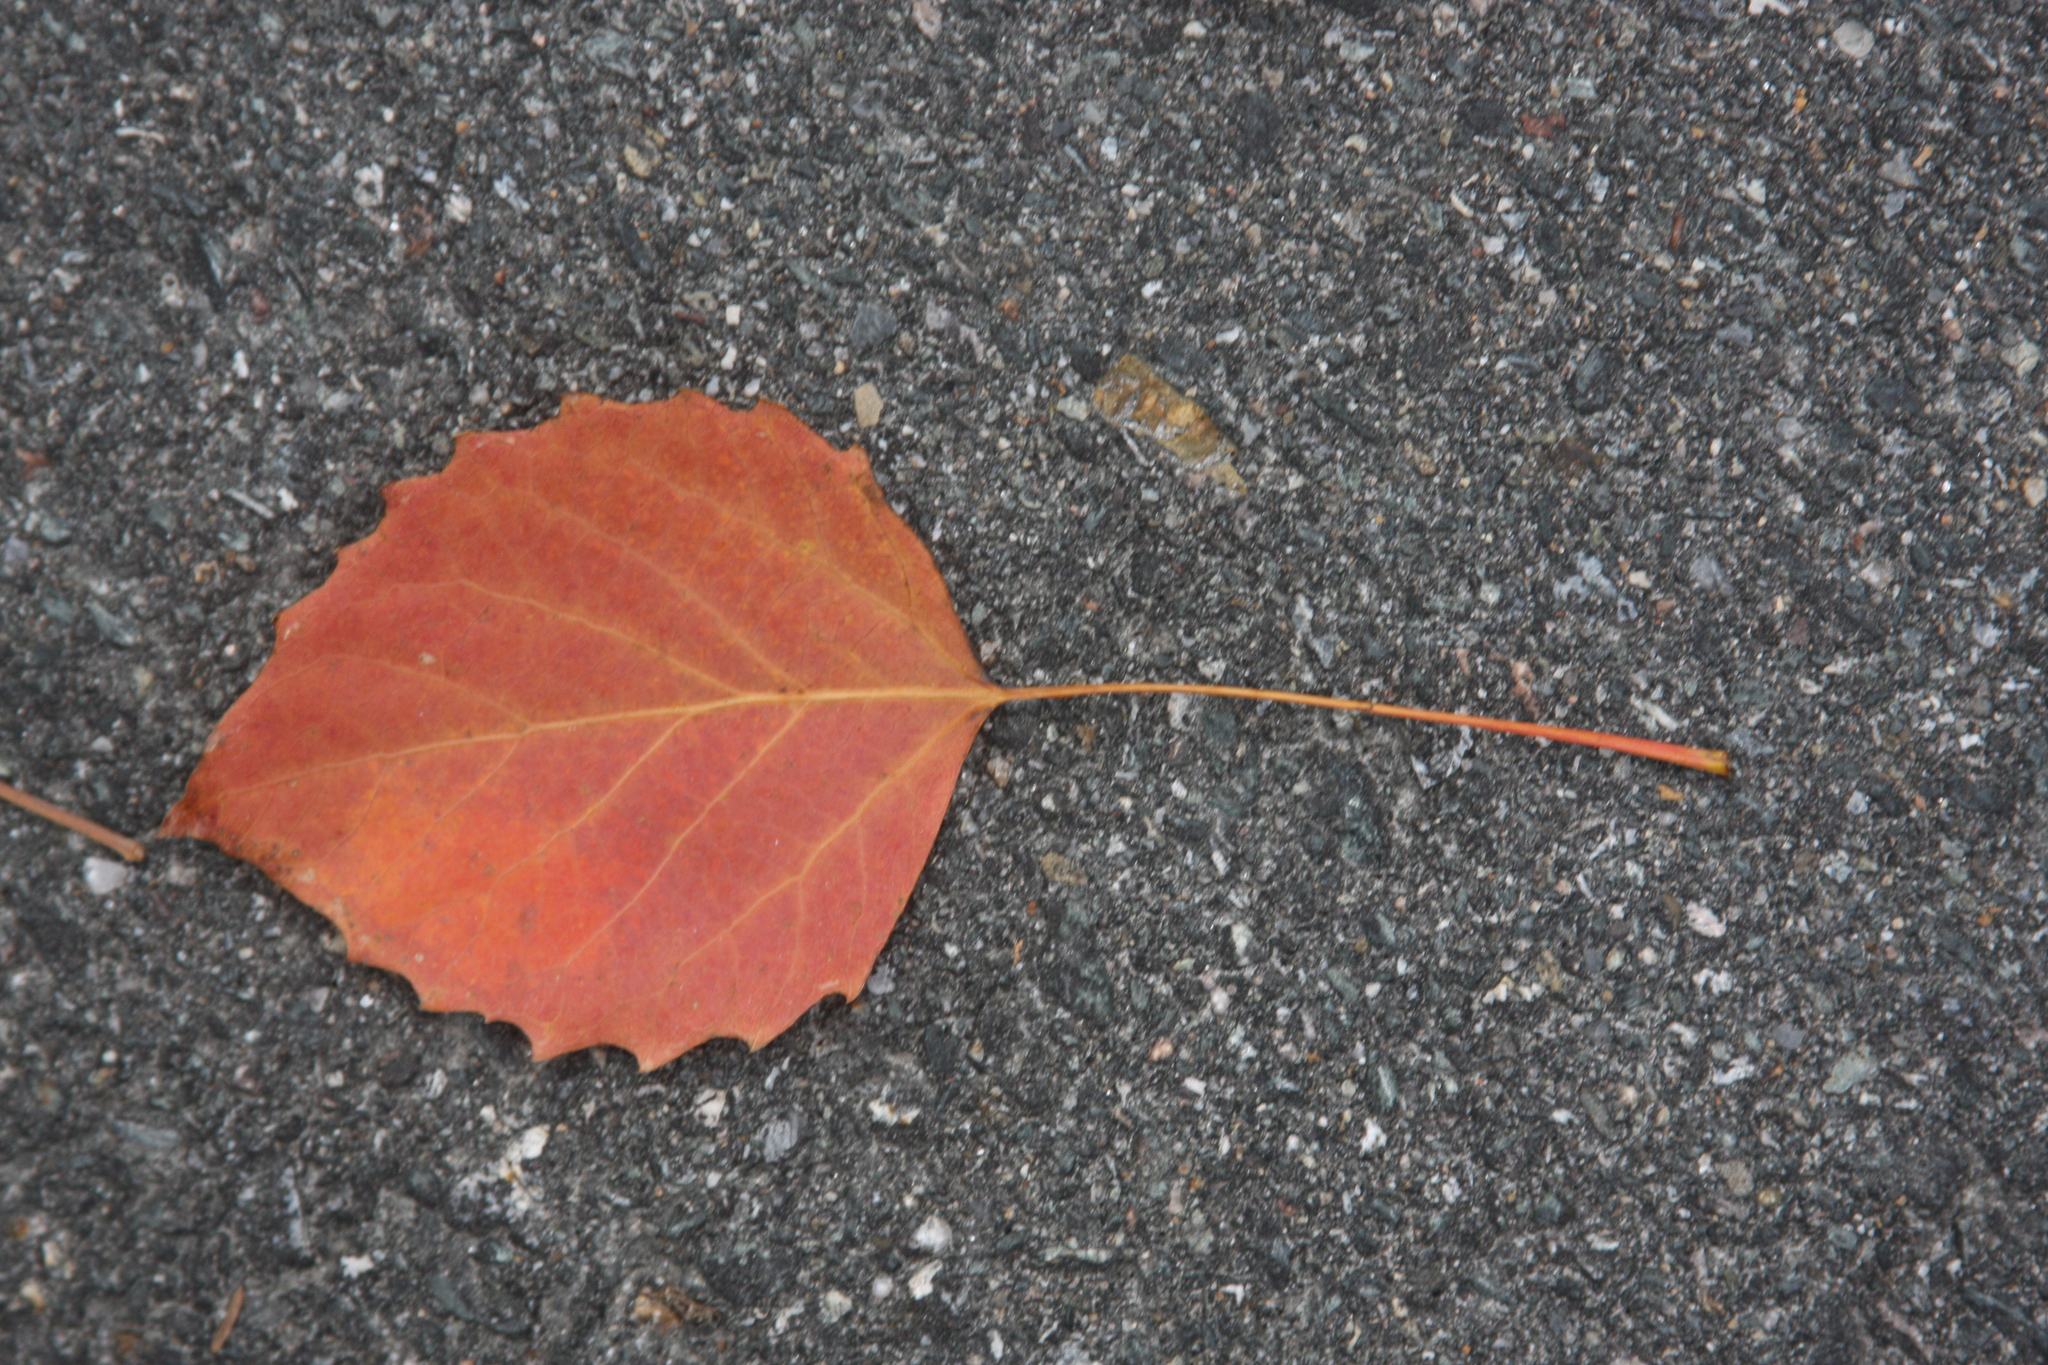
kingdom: Plantae
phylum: Tracheophyta
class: Magnoliopsida
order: Malpighiales
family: Salicaceae
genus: Populus
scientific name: Populus grandidentata
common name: Bigtooth aspen
